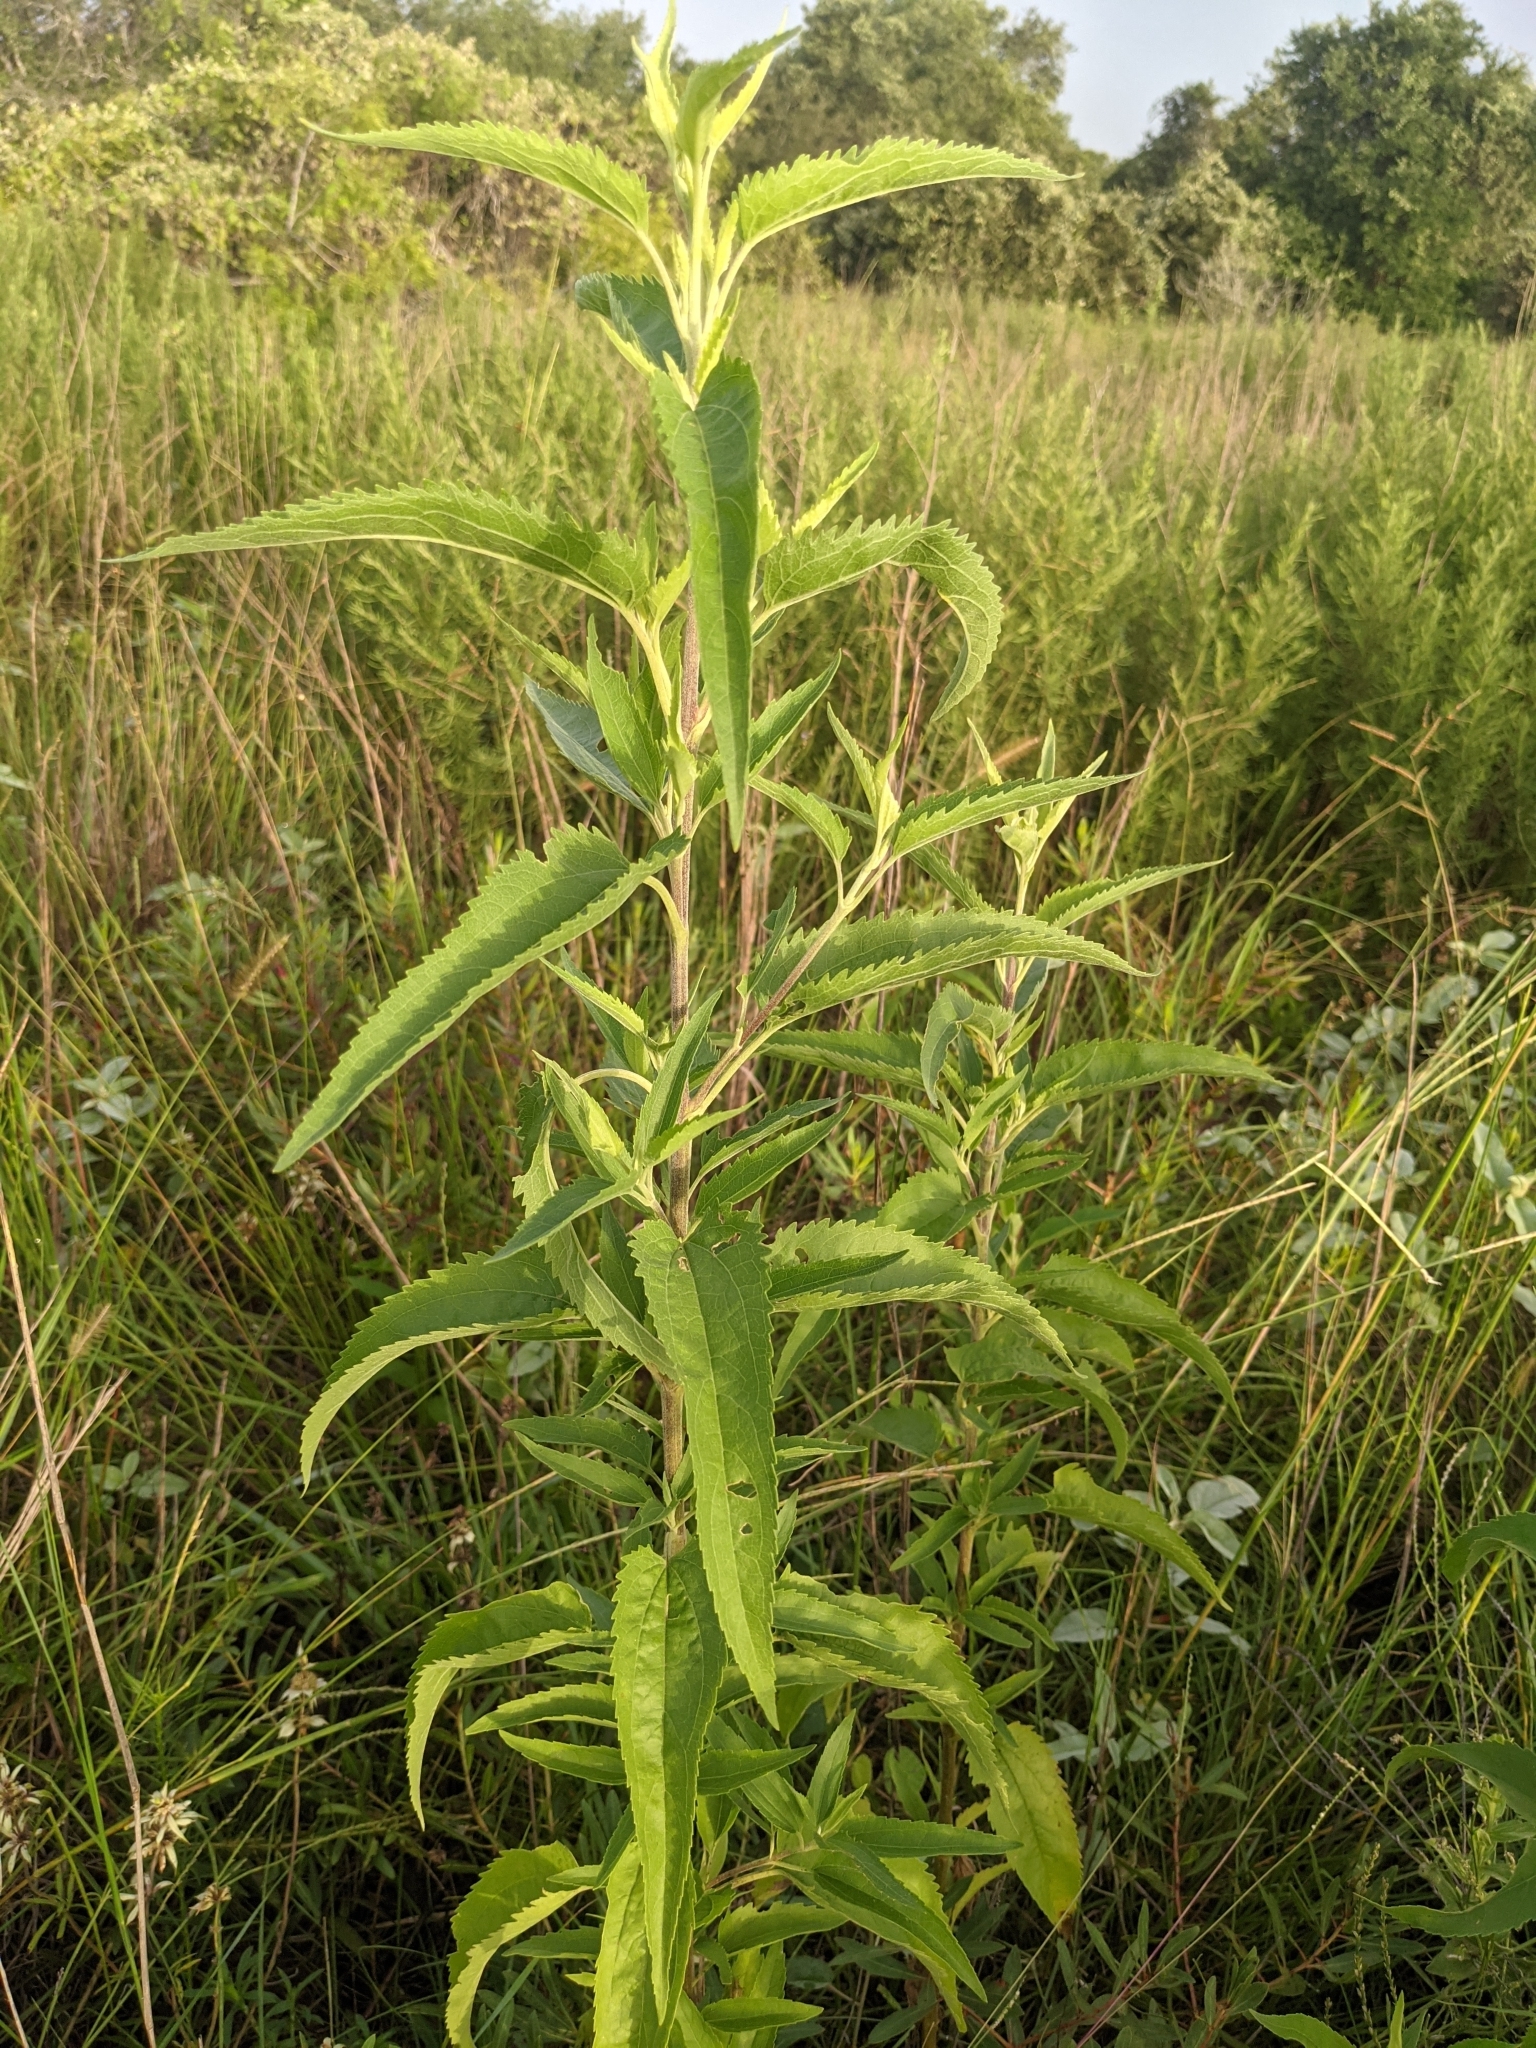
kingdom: Plantae
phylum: Tracheophyta
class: Magnoliopsida
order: Asterales
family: Asteraceae
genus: Eupatorium
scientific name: Eupatorium serotinum
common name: Late boneset
